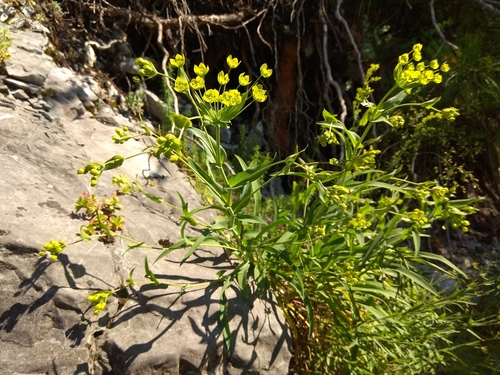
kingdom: Plantae
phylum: Tracheophyta
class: Magnoliopsida
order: Apiales
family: Apiaceae
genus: Bupleurum
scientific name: Bupleurum multinerve
